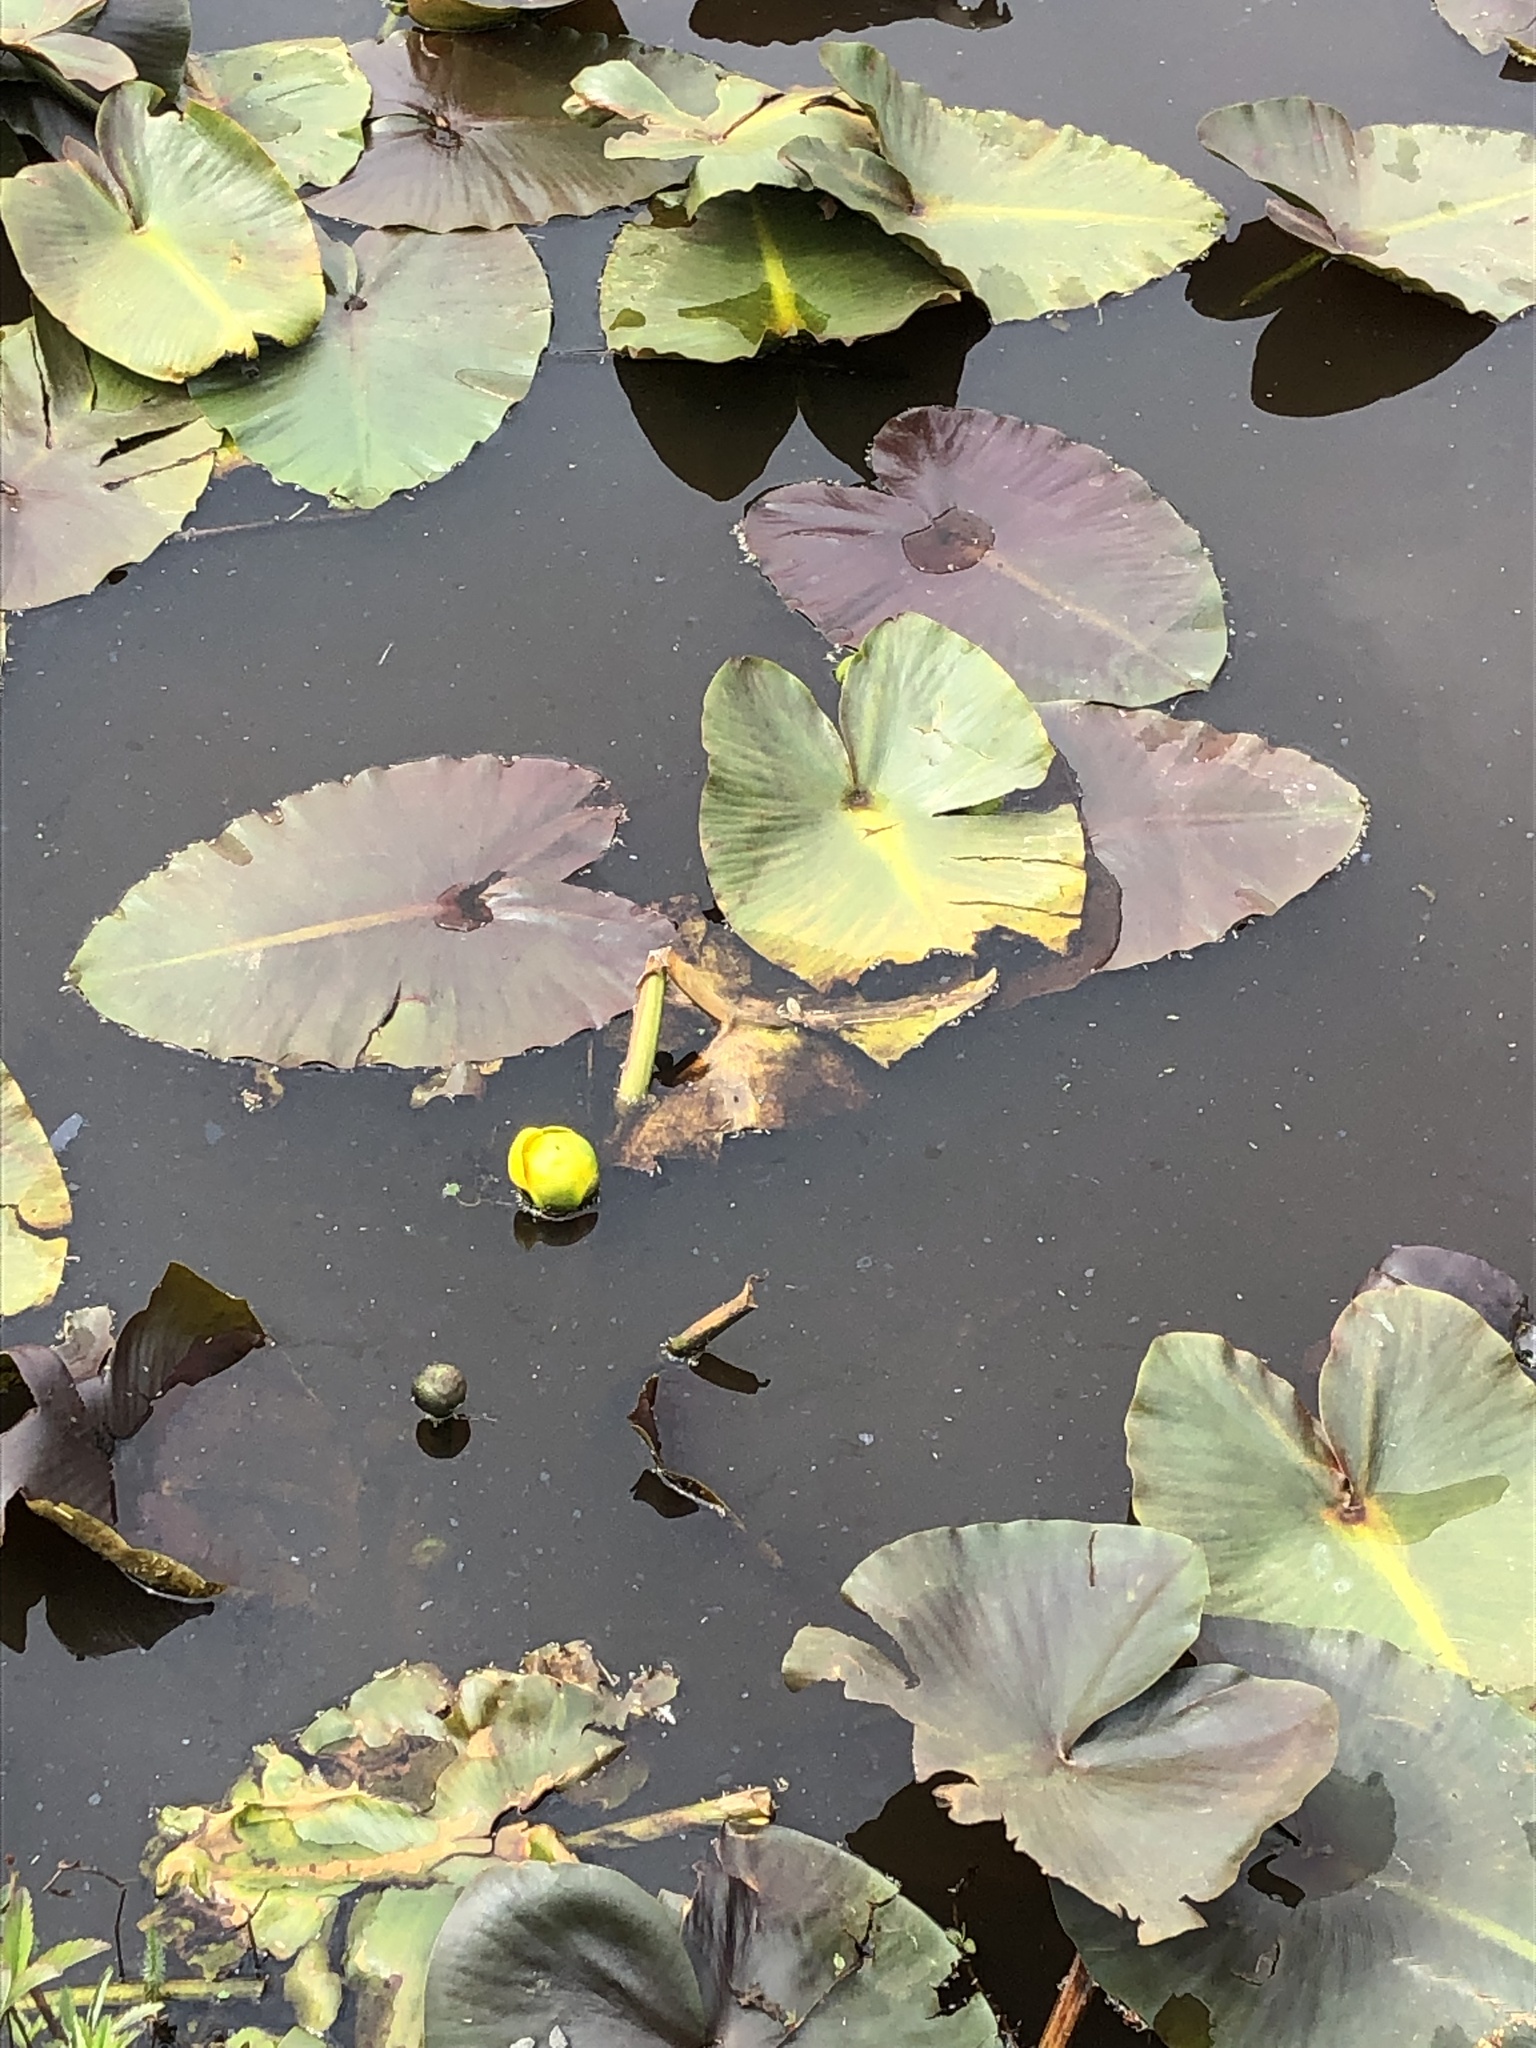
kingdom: Plantae
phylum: Tracheophyta
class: Magnoliopsida
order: Nymphaeales
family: Nymphaeaceae
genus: Nuphar
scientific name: Nuphar polysepala
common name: Rocky mountain cow-lily
